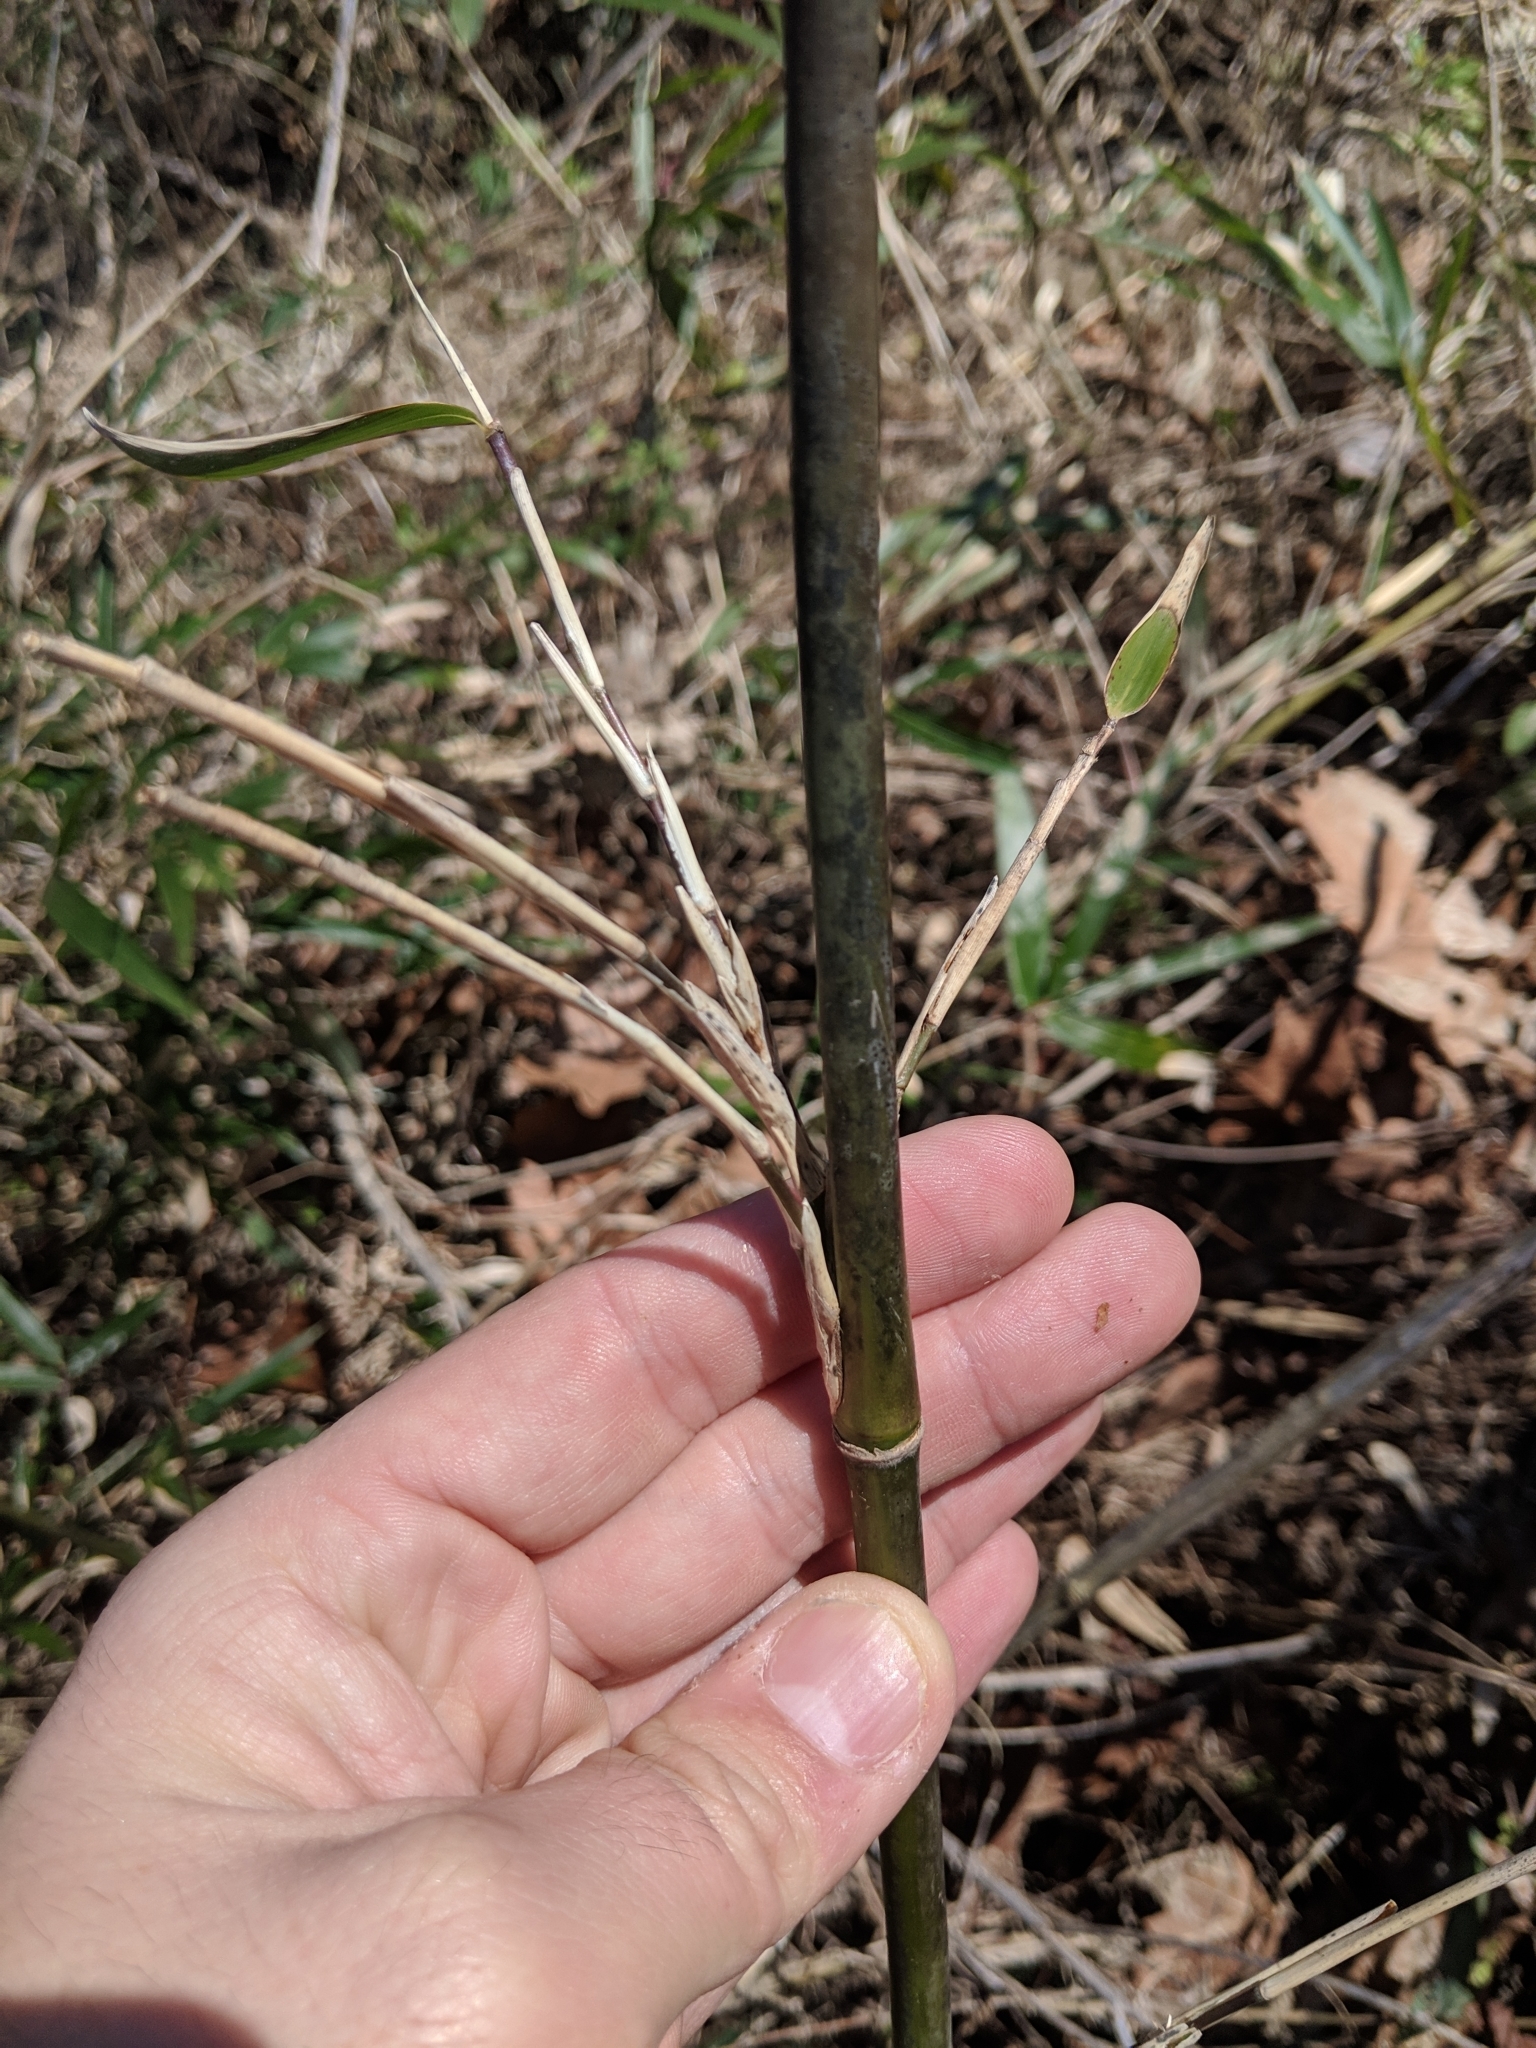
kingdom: Plantae
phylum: Tracheophyta
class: Liliopsida
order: Poales
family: Poaceae
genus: Arundinaria
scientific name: Arundinaria gigantea
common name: Giant cane
